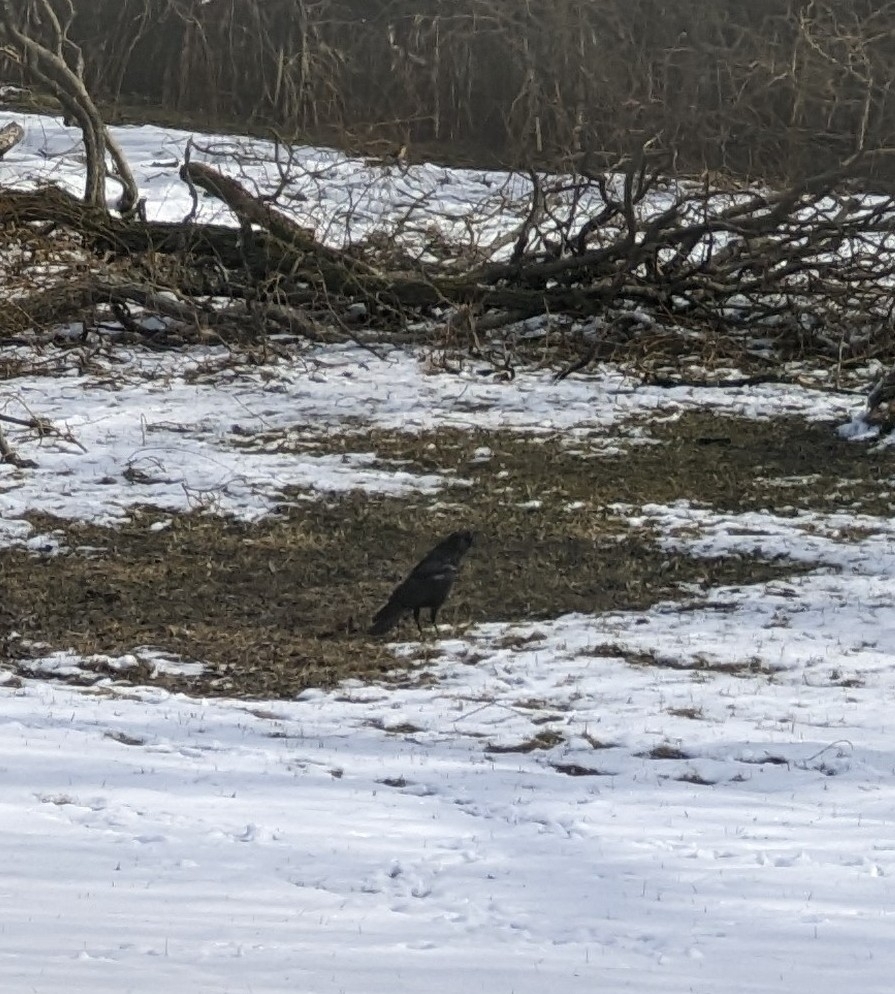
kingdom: Animalia
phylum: Chordata
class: Aves
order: Passeriformes
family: Corvidae
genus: Corvus
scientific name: Corvus brachyrhynchos
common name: American crow
